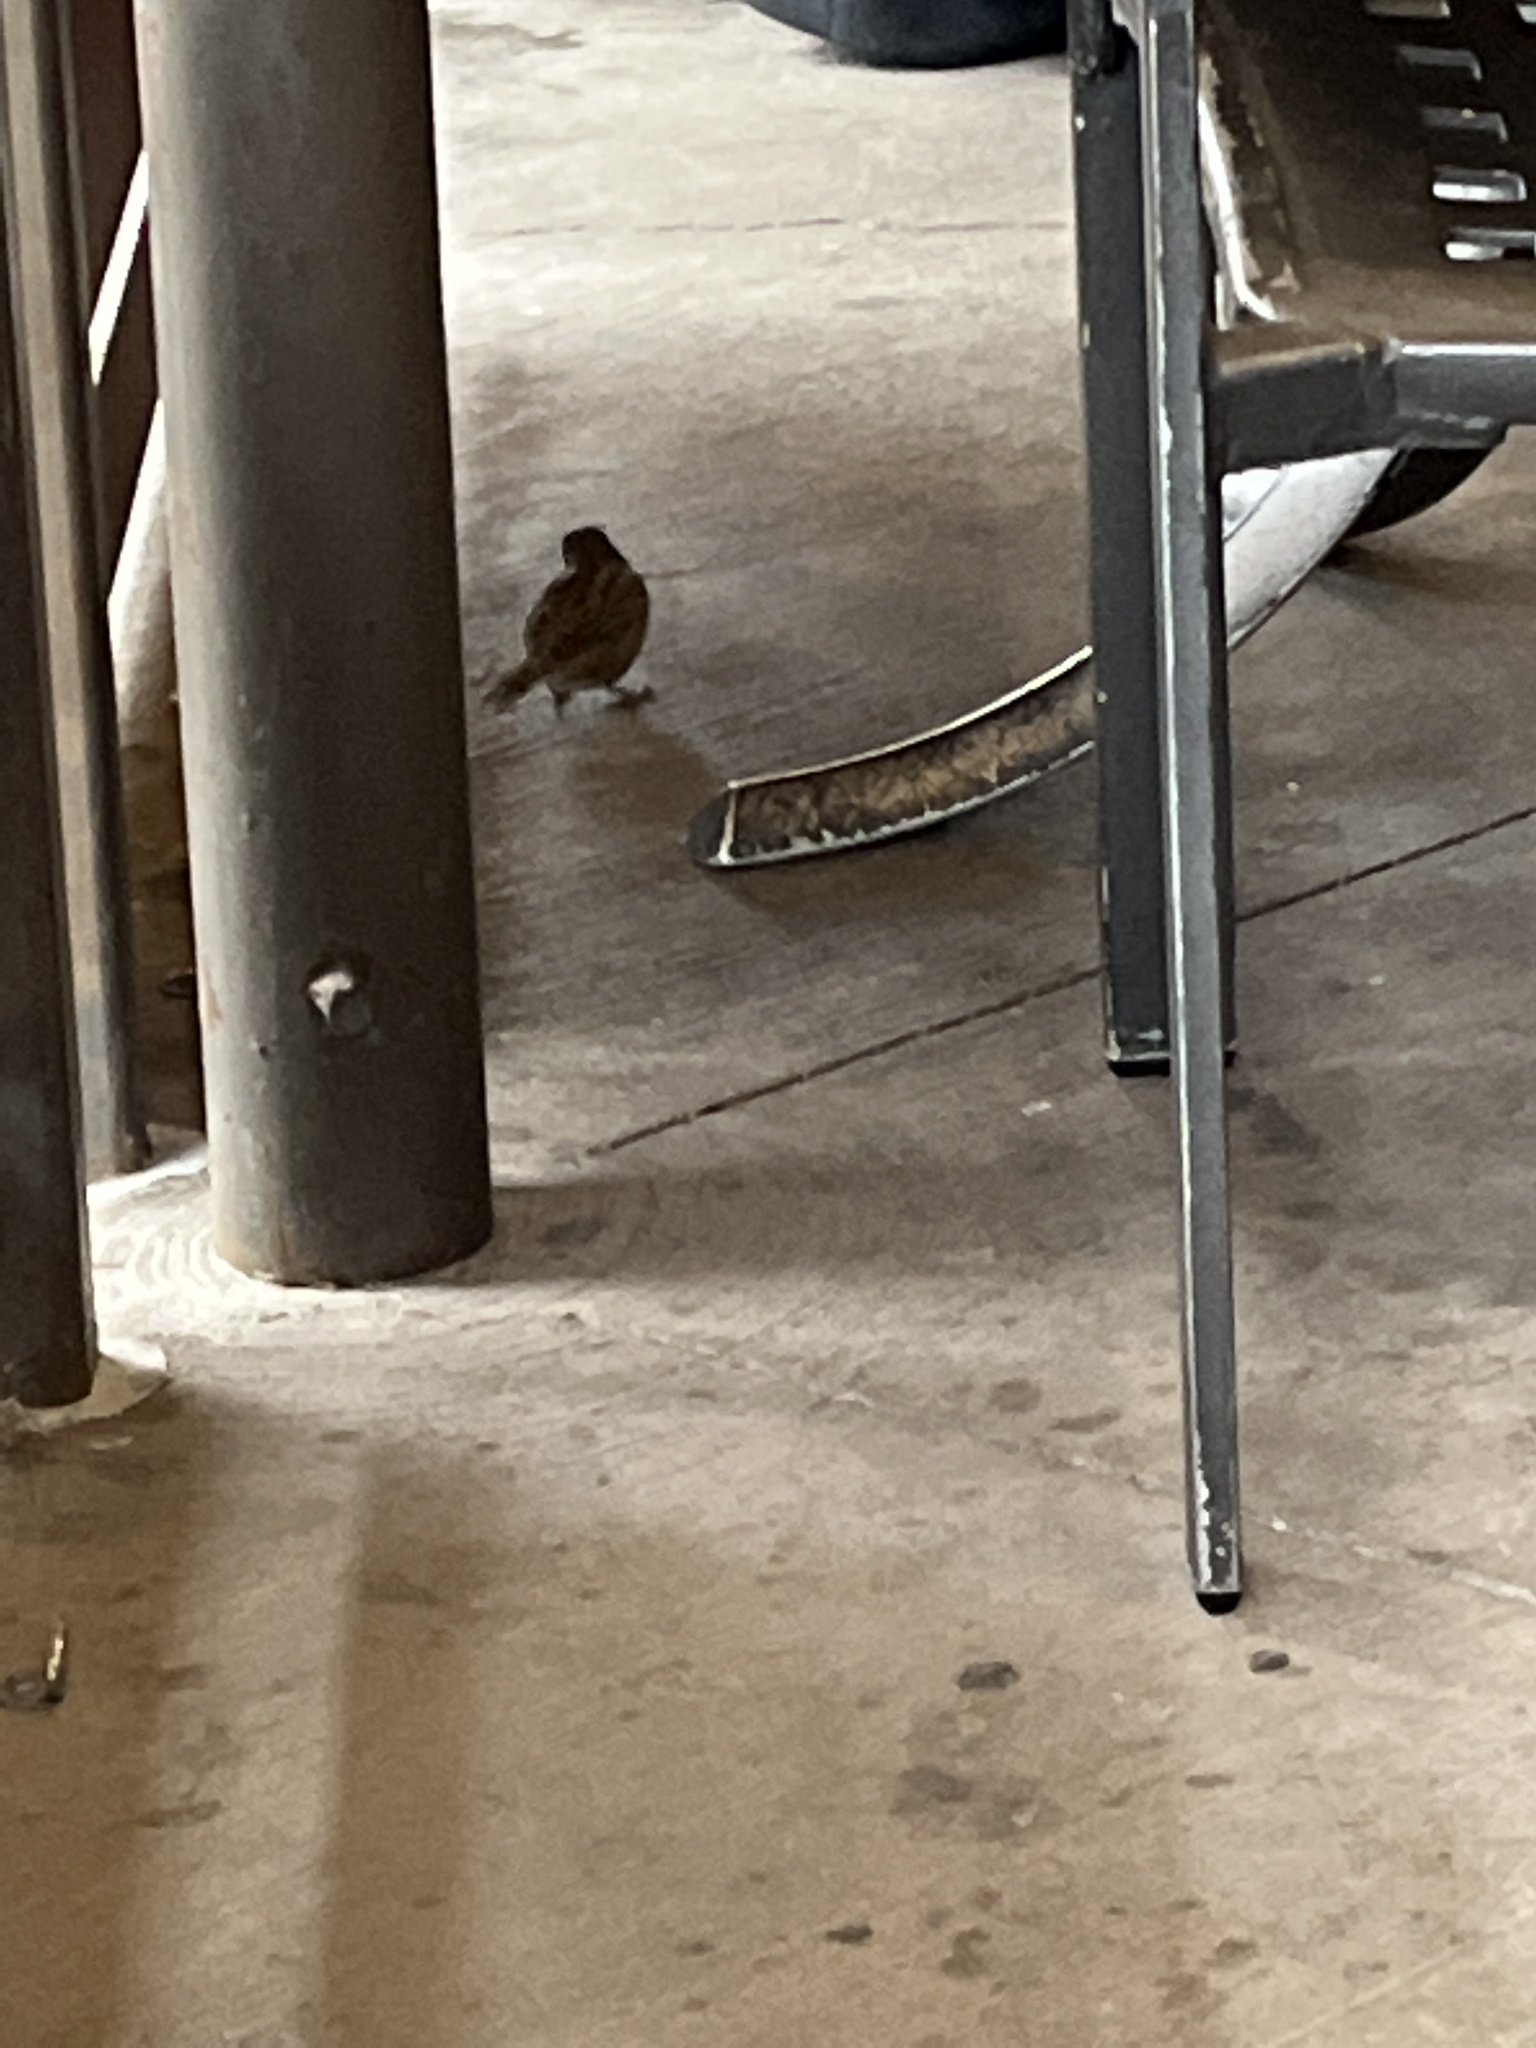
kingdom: Animalia
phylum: Chordata
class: Aves
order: Passeriformes
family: Passeridae
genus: Passer
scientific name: Passer domesticus
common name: House sparrow
